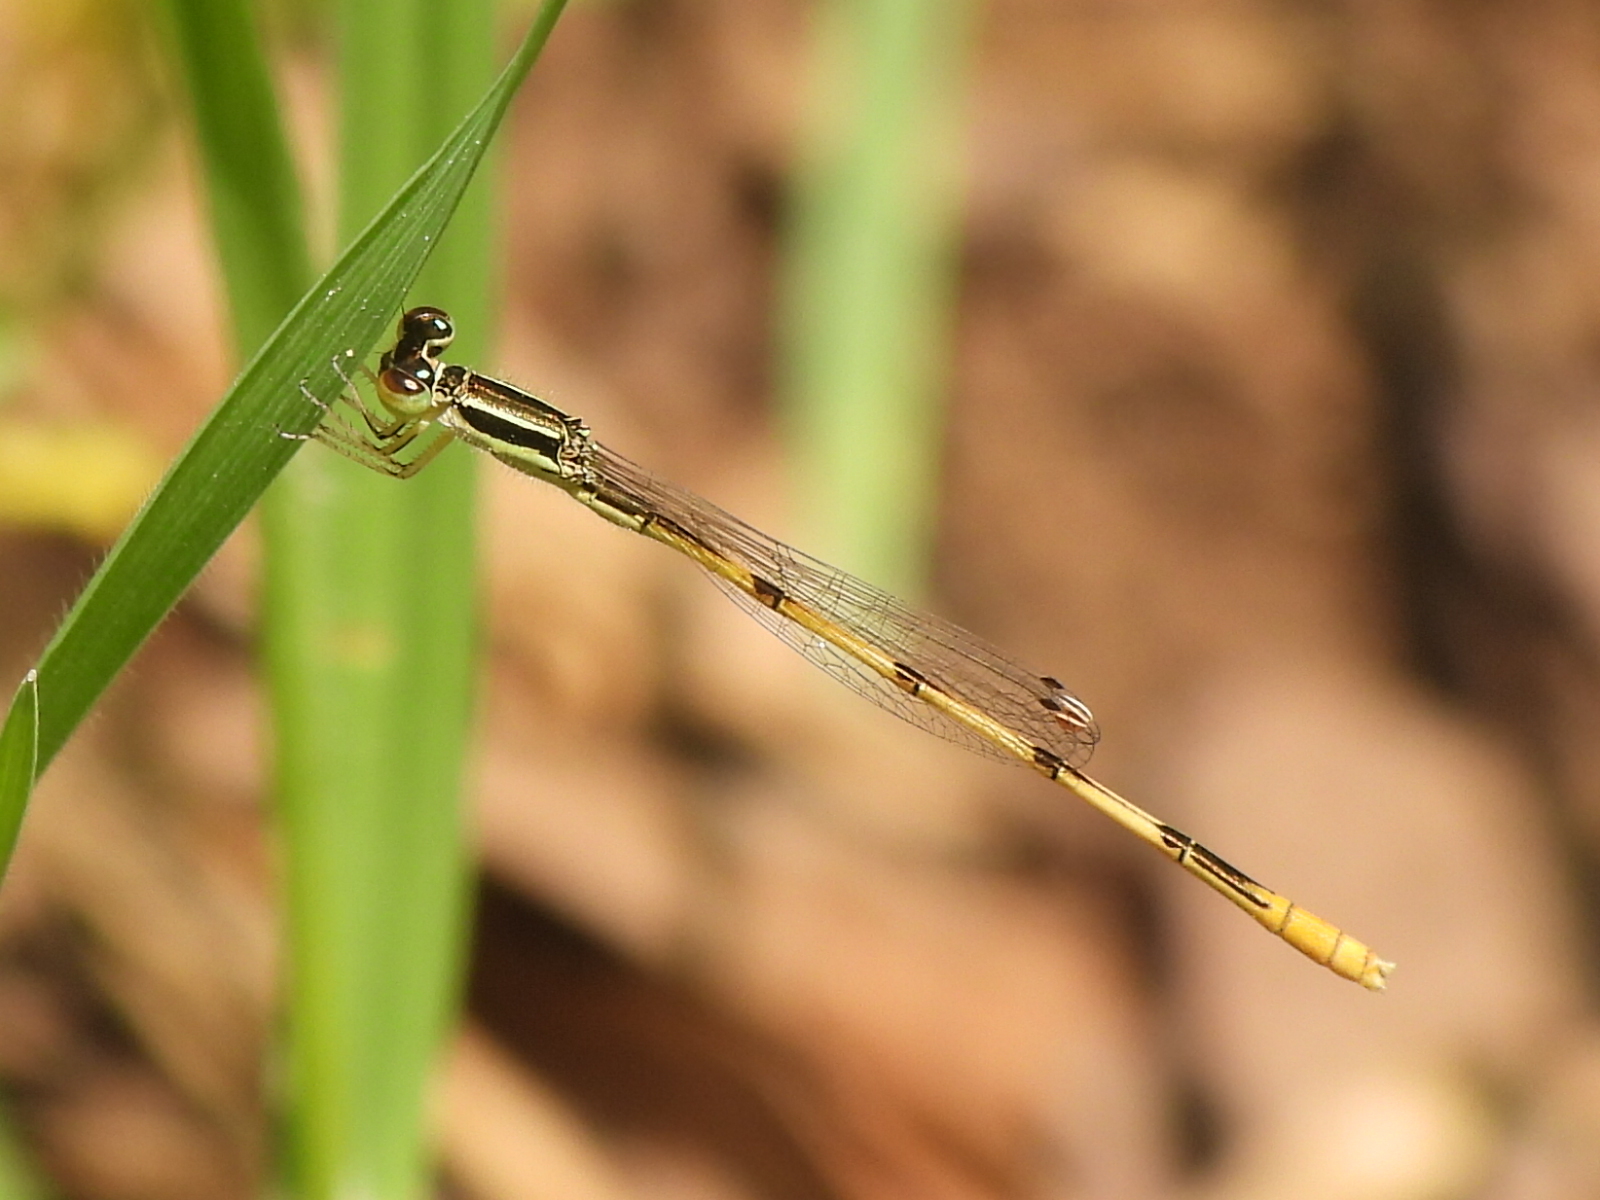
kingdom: Animalia
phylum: Arthropoda
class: Insecta
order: Odonata
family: Coenagrionidae
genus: Ischnura
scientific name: Ischnura hastata
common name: Citrine forktail
